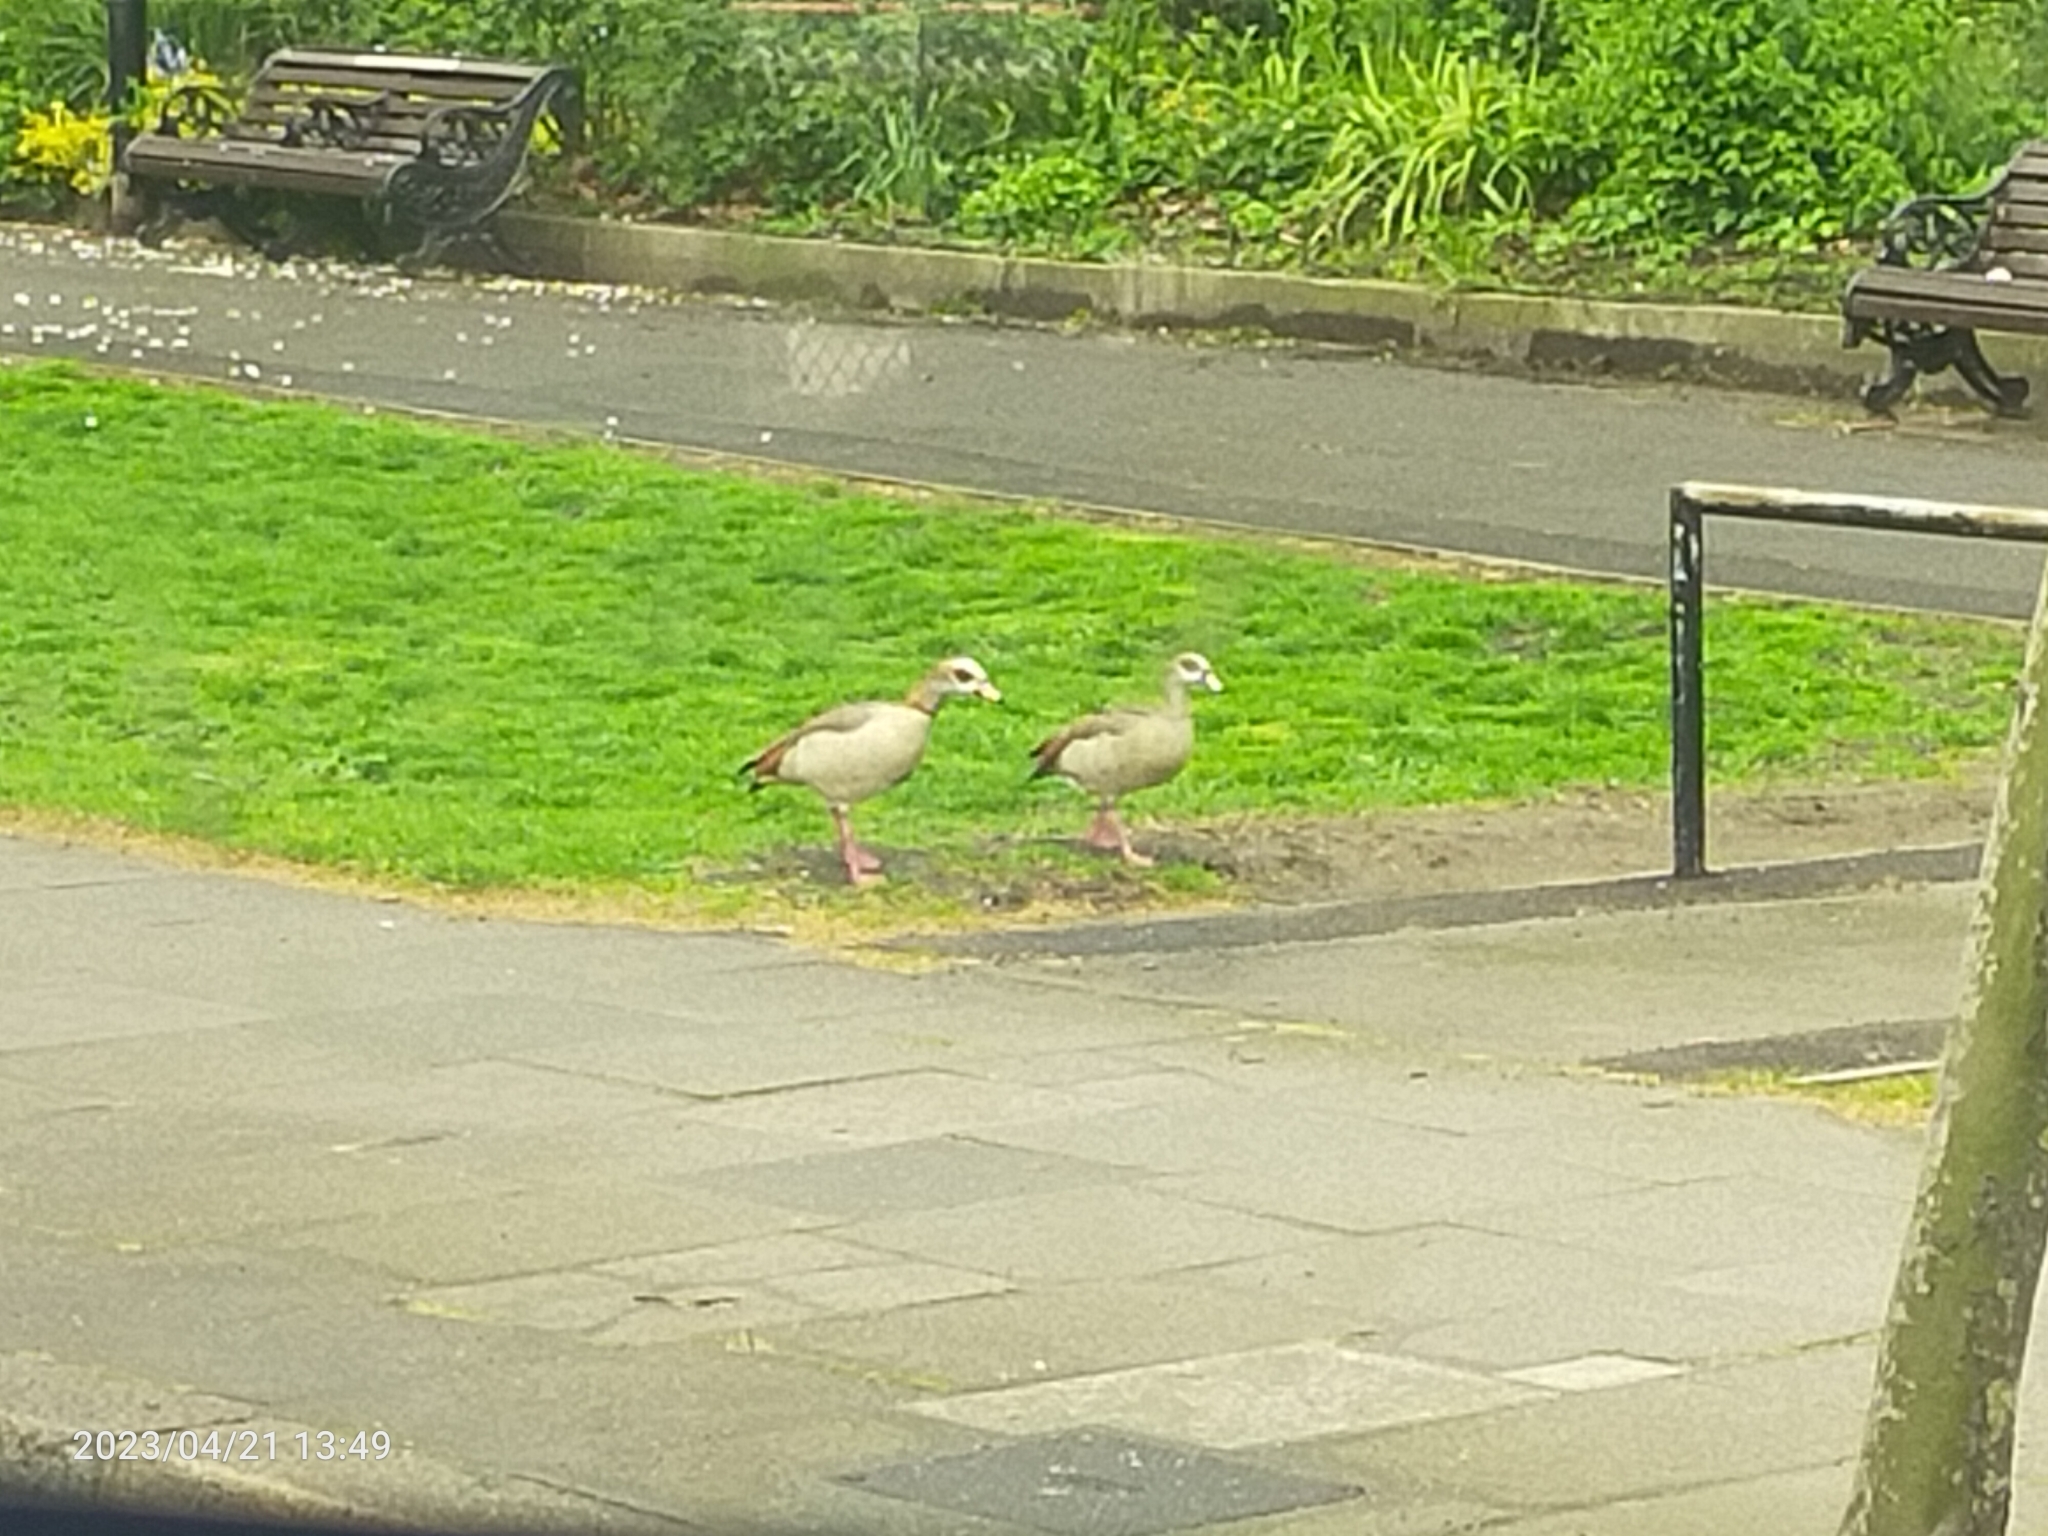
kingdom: Animalia
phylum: Chordata
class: Aves
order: Anseriformes
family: Anatidae
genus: Alopochen
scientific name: Alopochen aegyptiaca
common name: Egyptian goose
